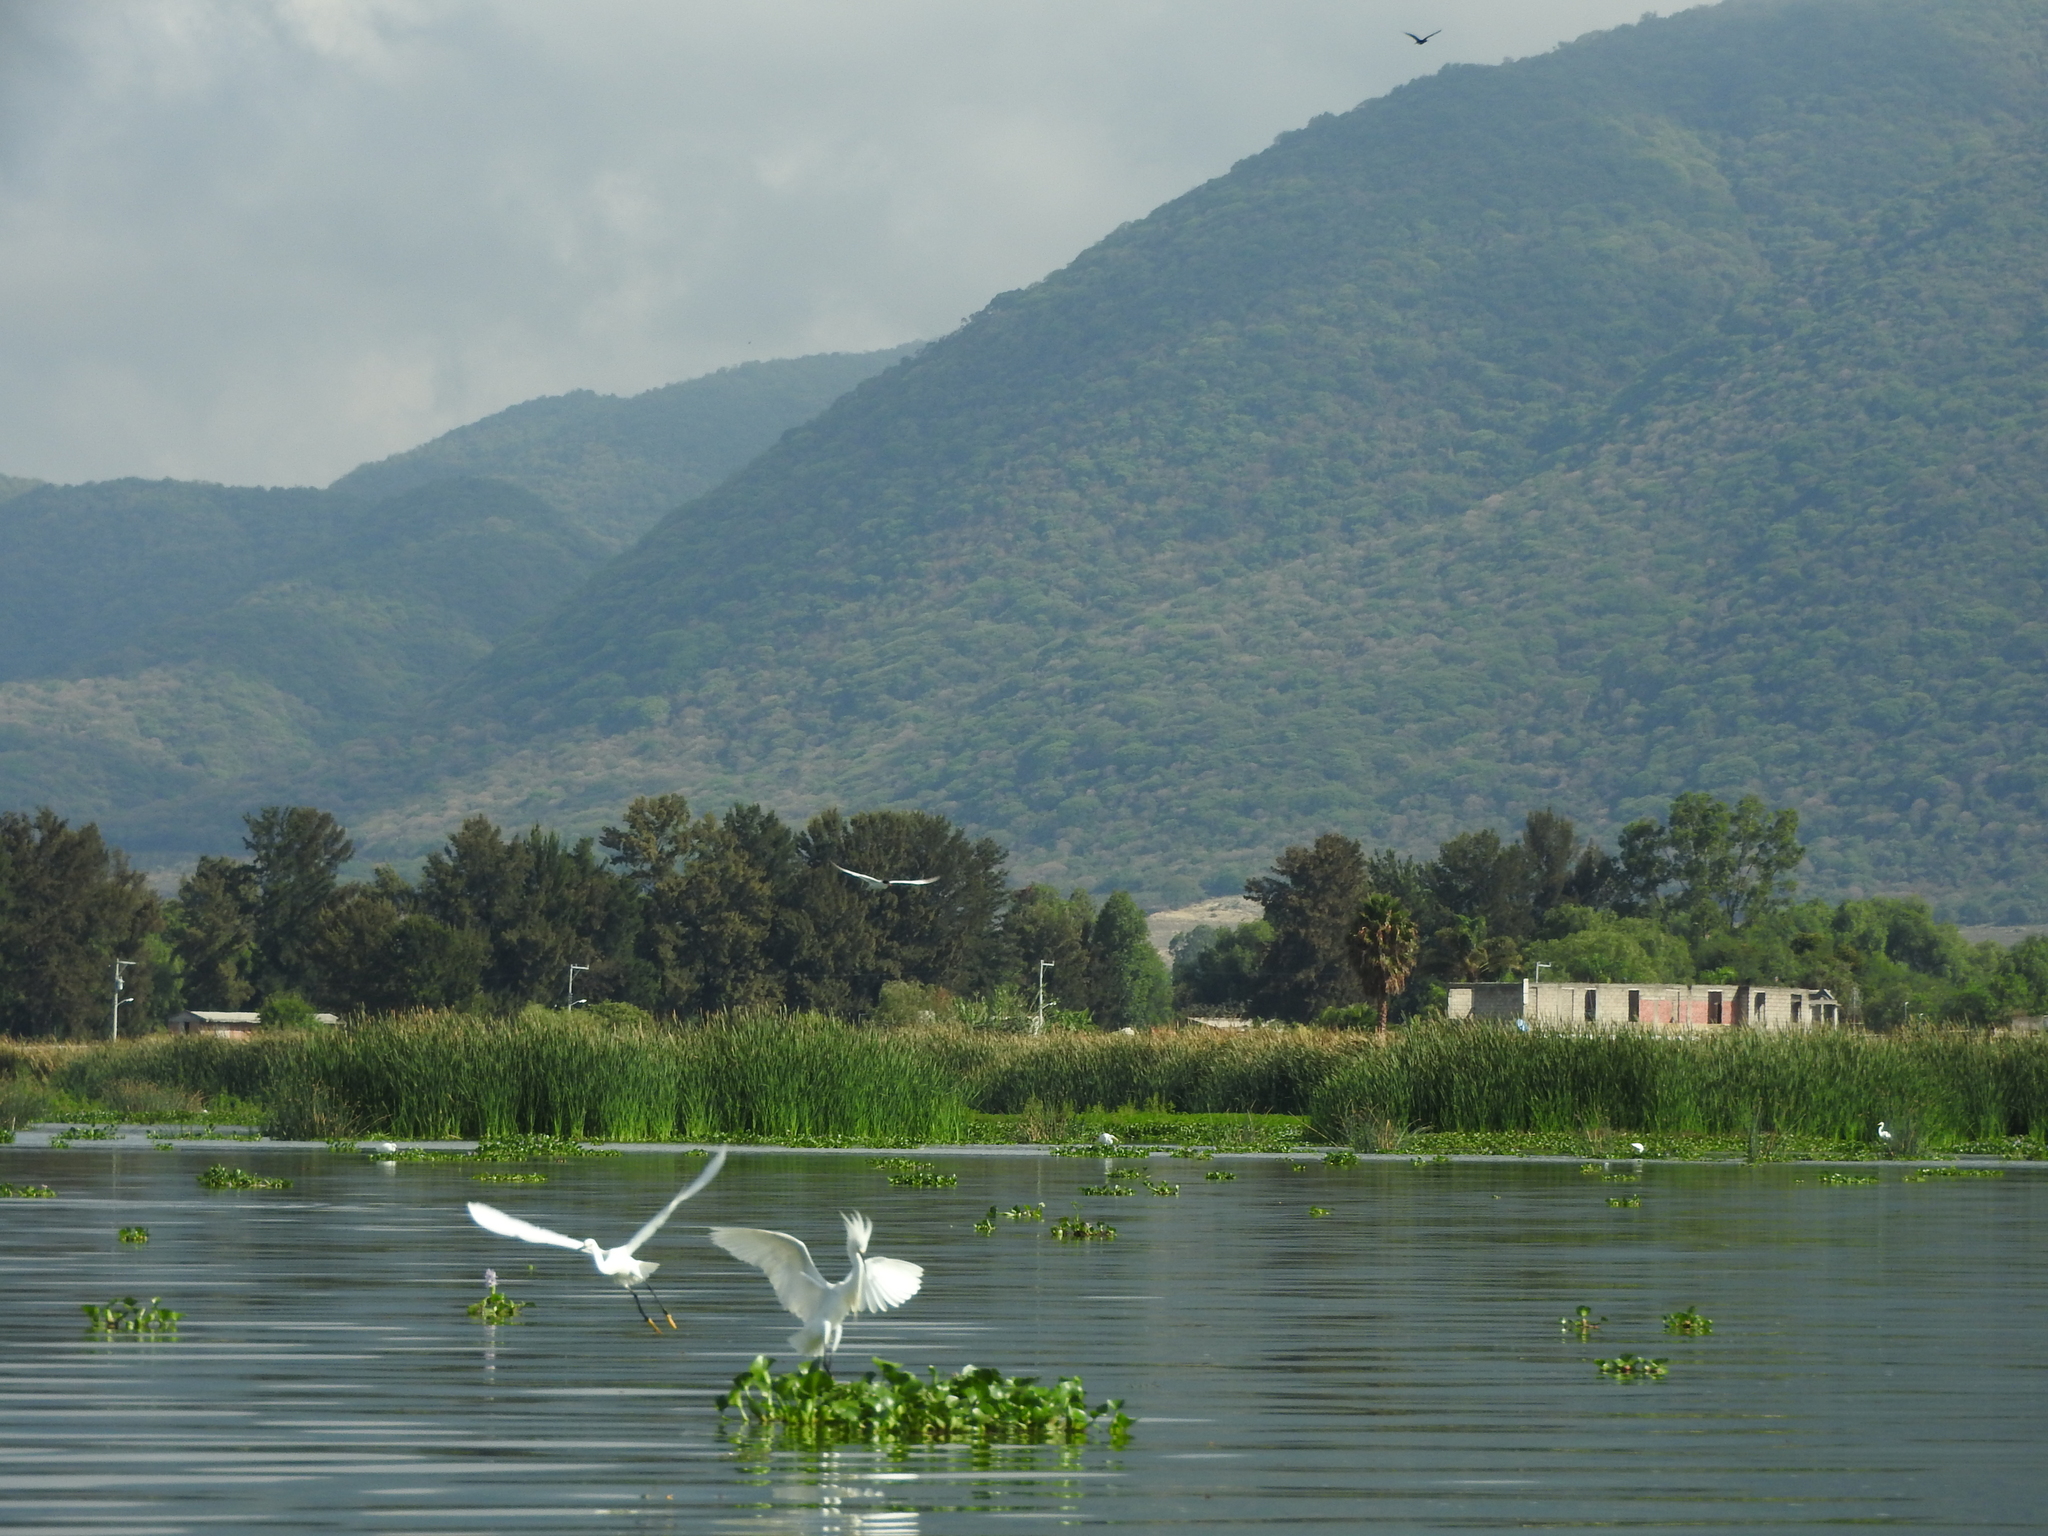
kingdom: Animalia
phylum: Chordata
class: Aves
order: Pelecaniformes
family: Ardeidae
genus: Egretta
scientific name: Egretta thula
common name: Snowy egret
